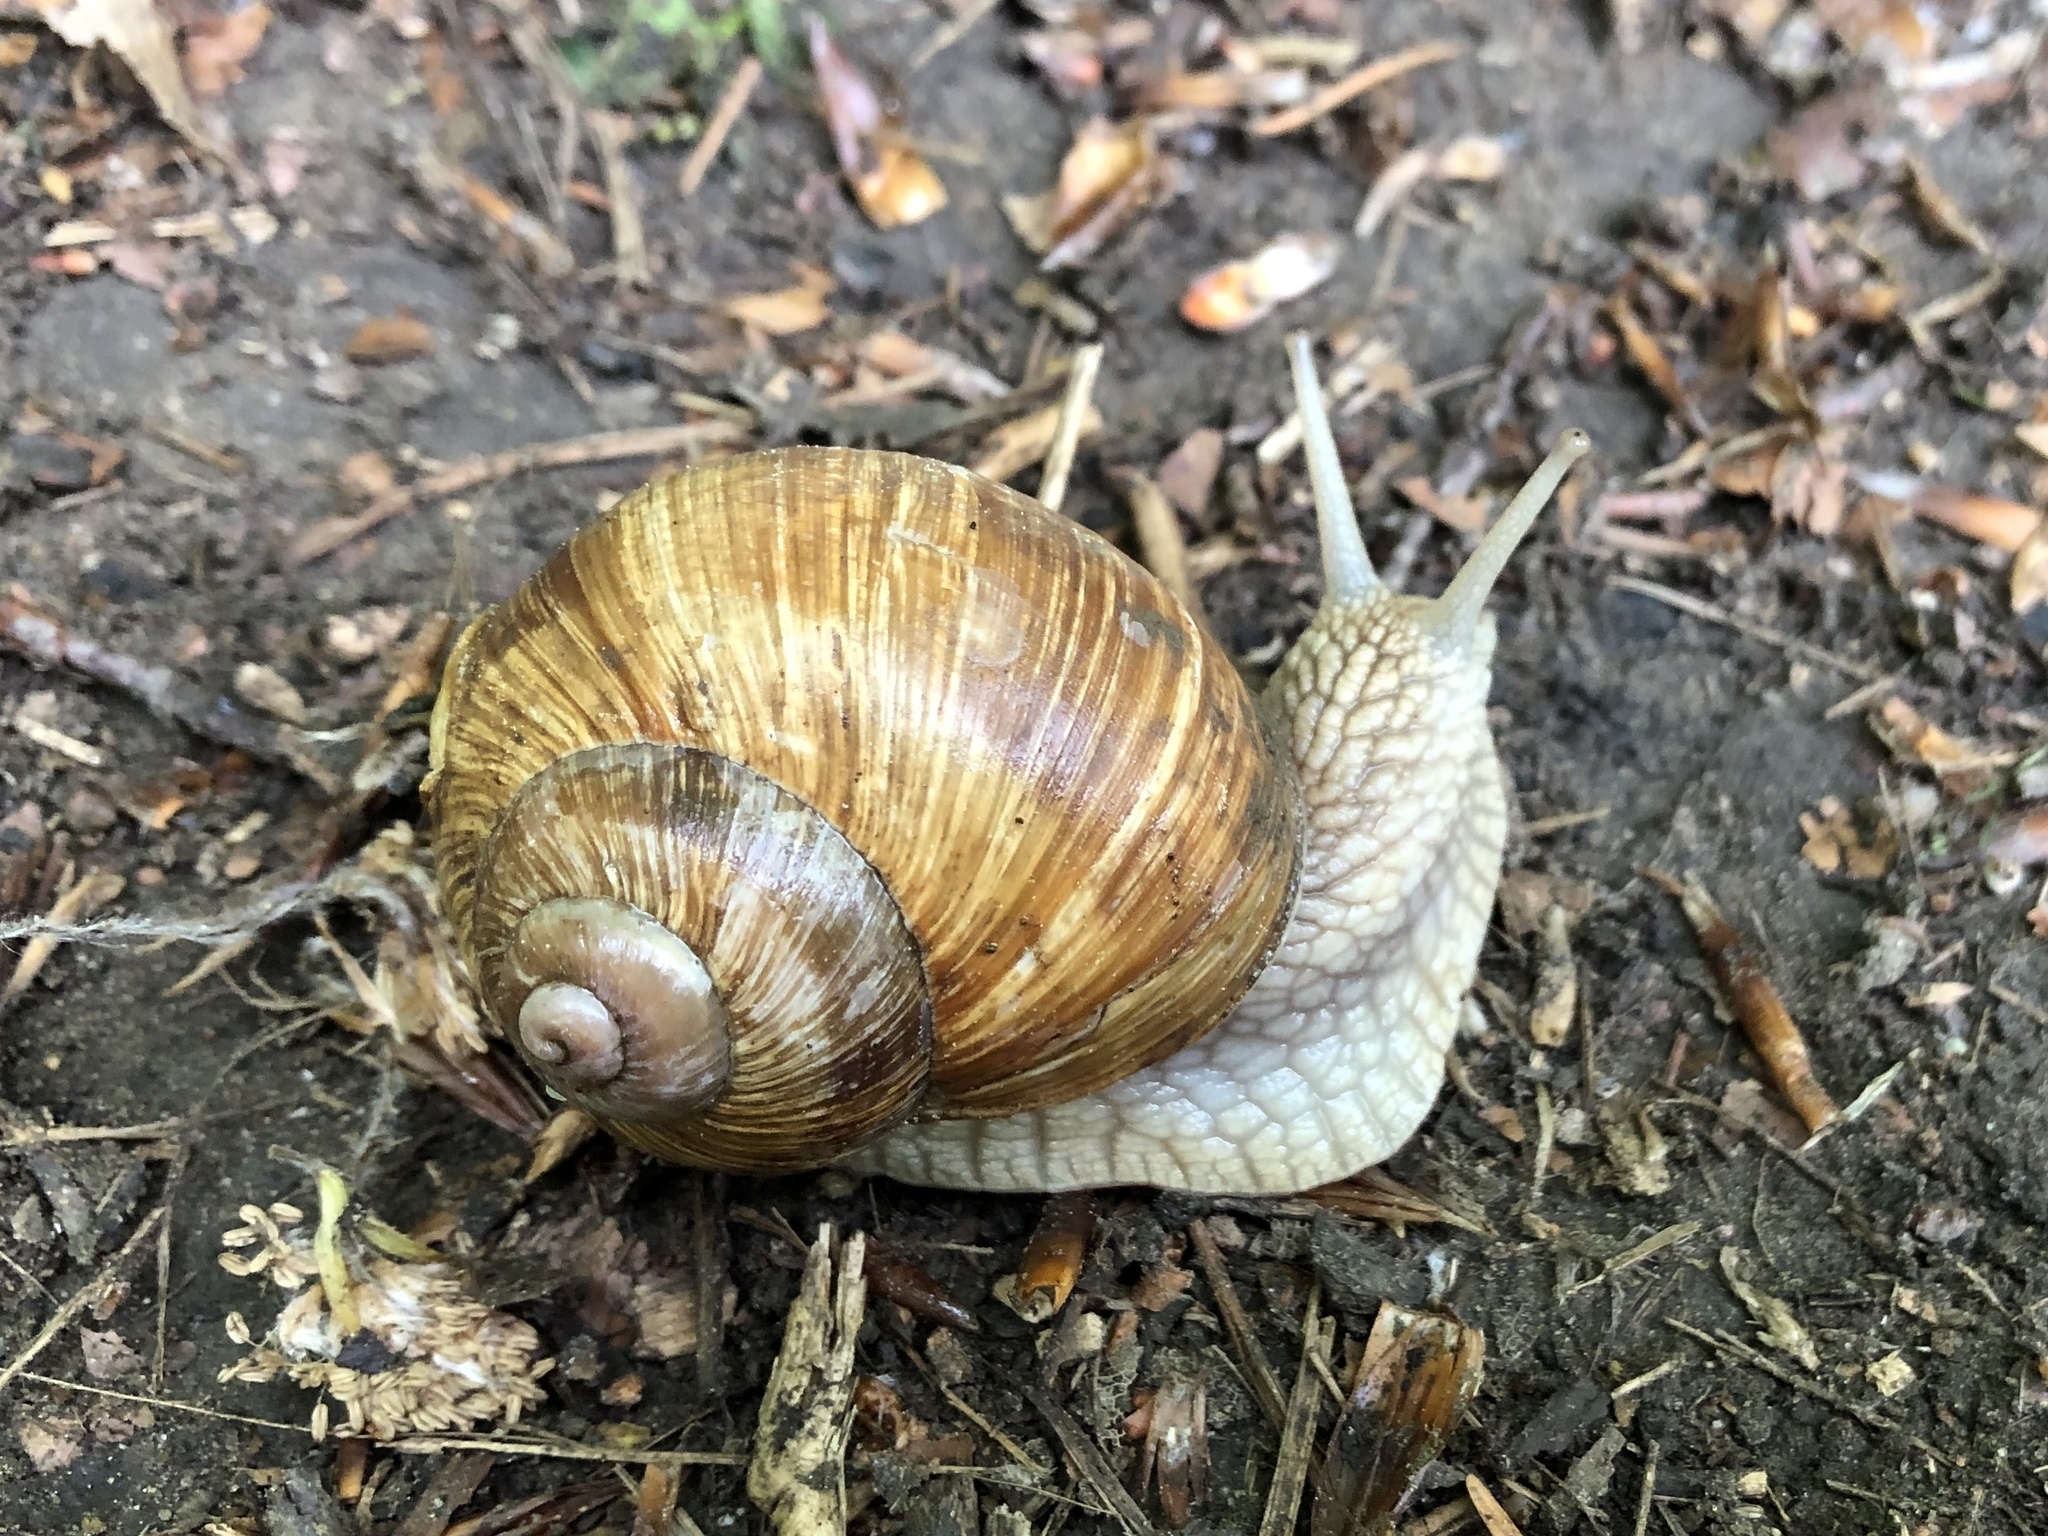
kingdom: Animalia
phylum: Mollusca
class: Gastropoda
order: Stylommatophora
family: Helicidae
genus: Helix
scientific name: Helix pomatia
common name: Roman snail
